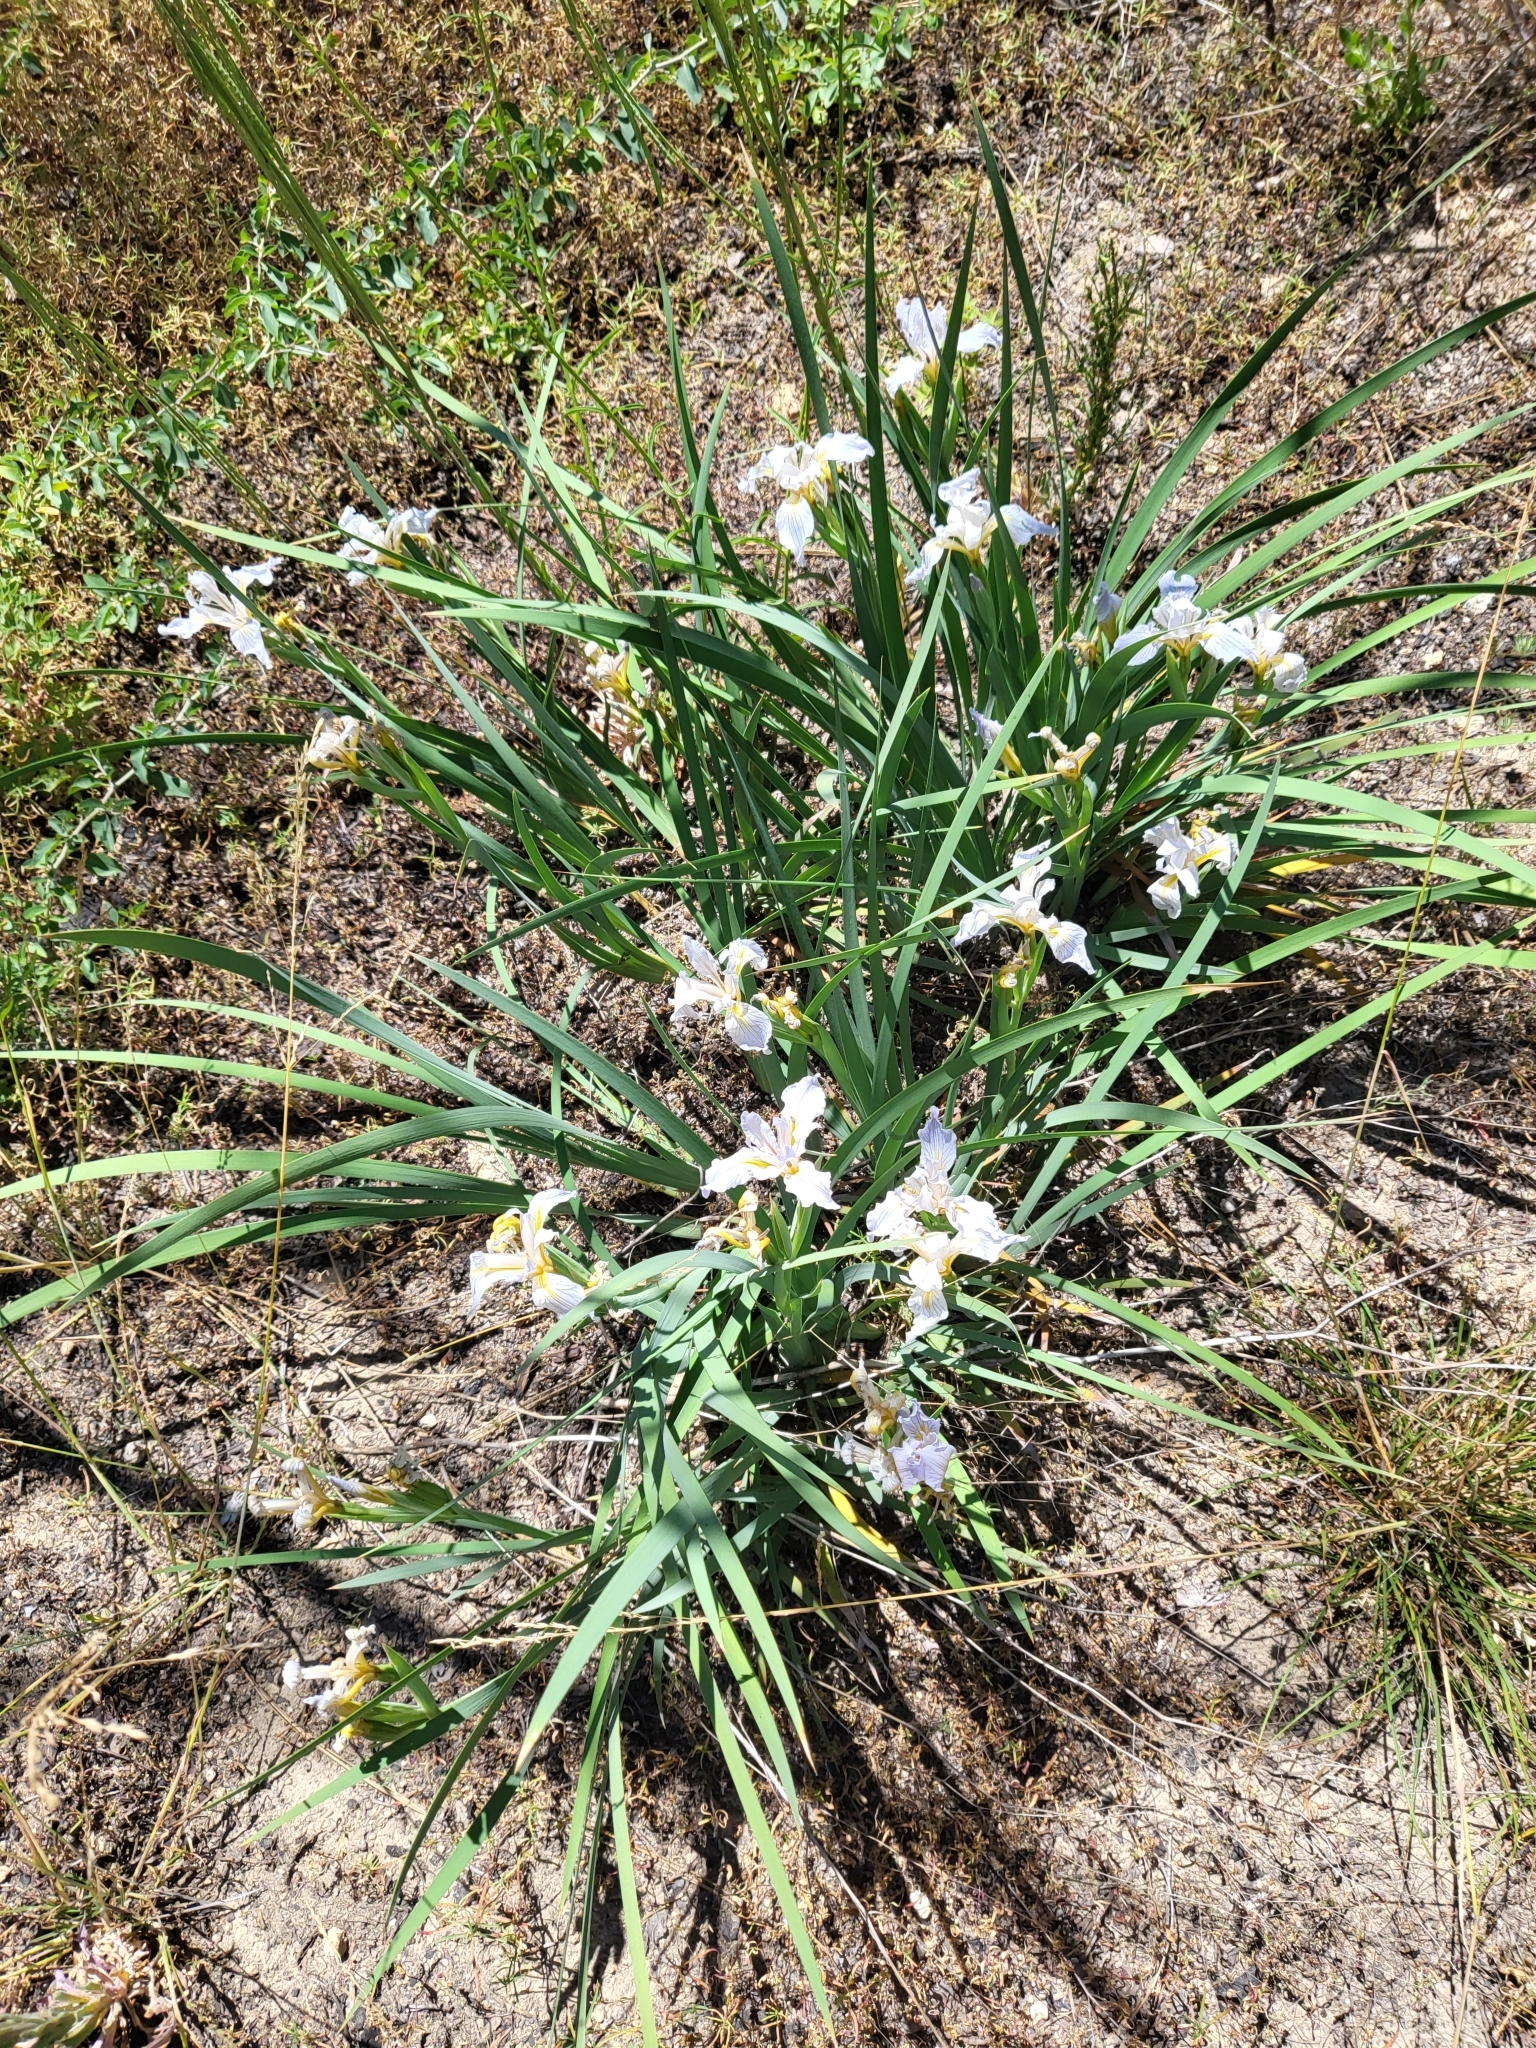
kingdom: Plantae
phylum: Tracheophyta
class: Liliopsida
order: Asparagales
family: Iridaceae
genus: Iris
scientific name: Iris hartwegii
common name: Sierra iris
